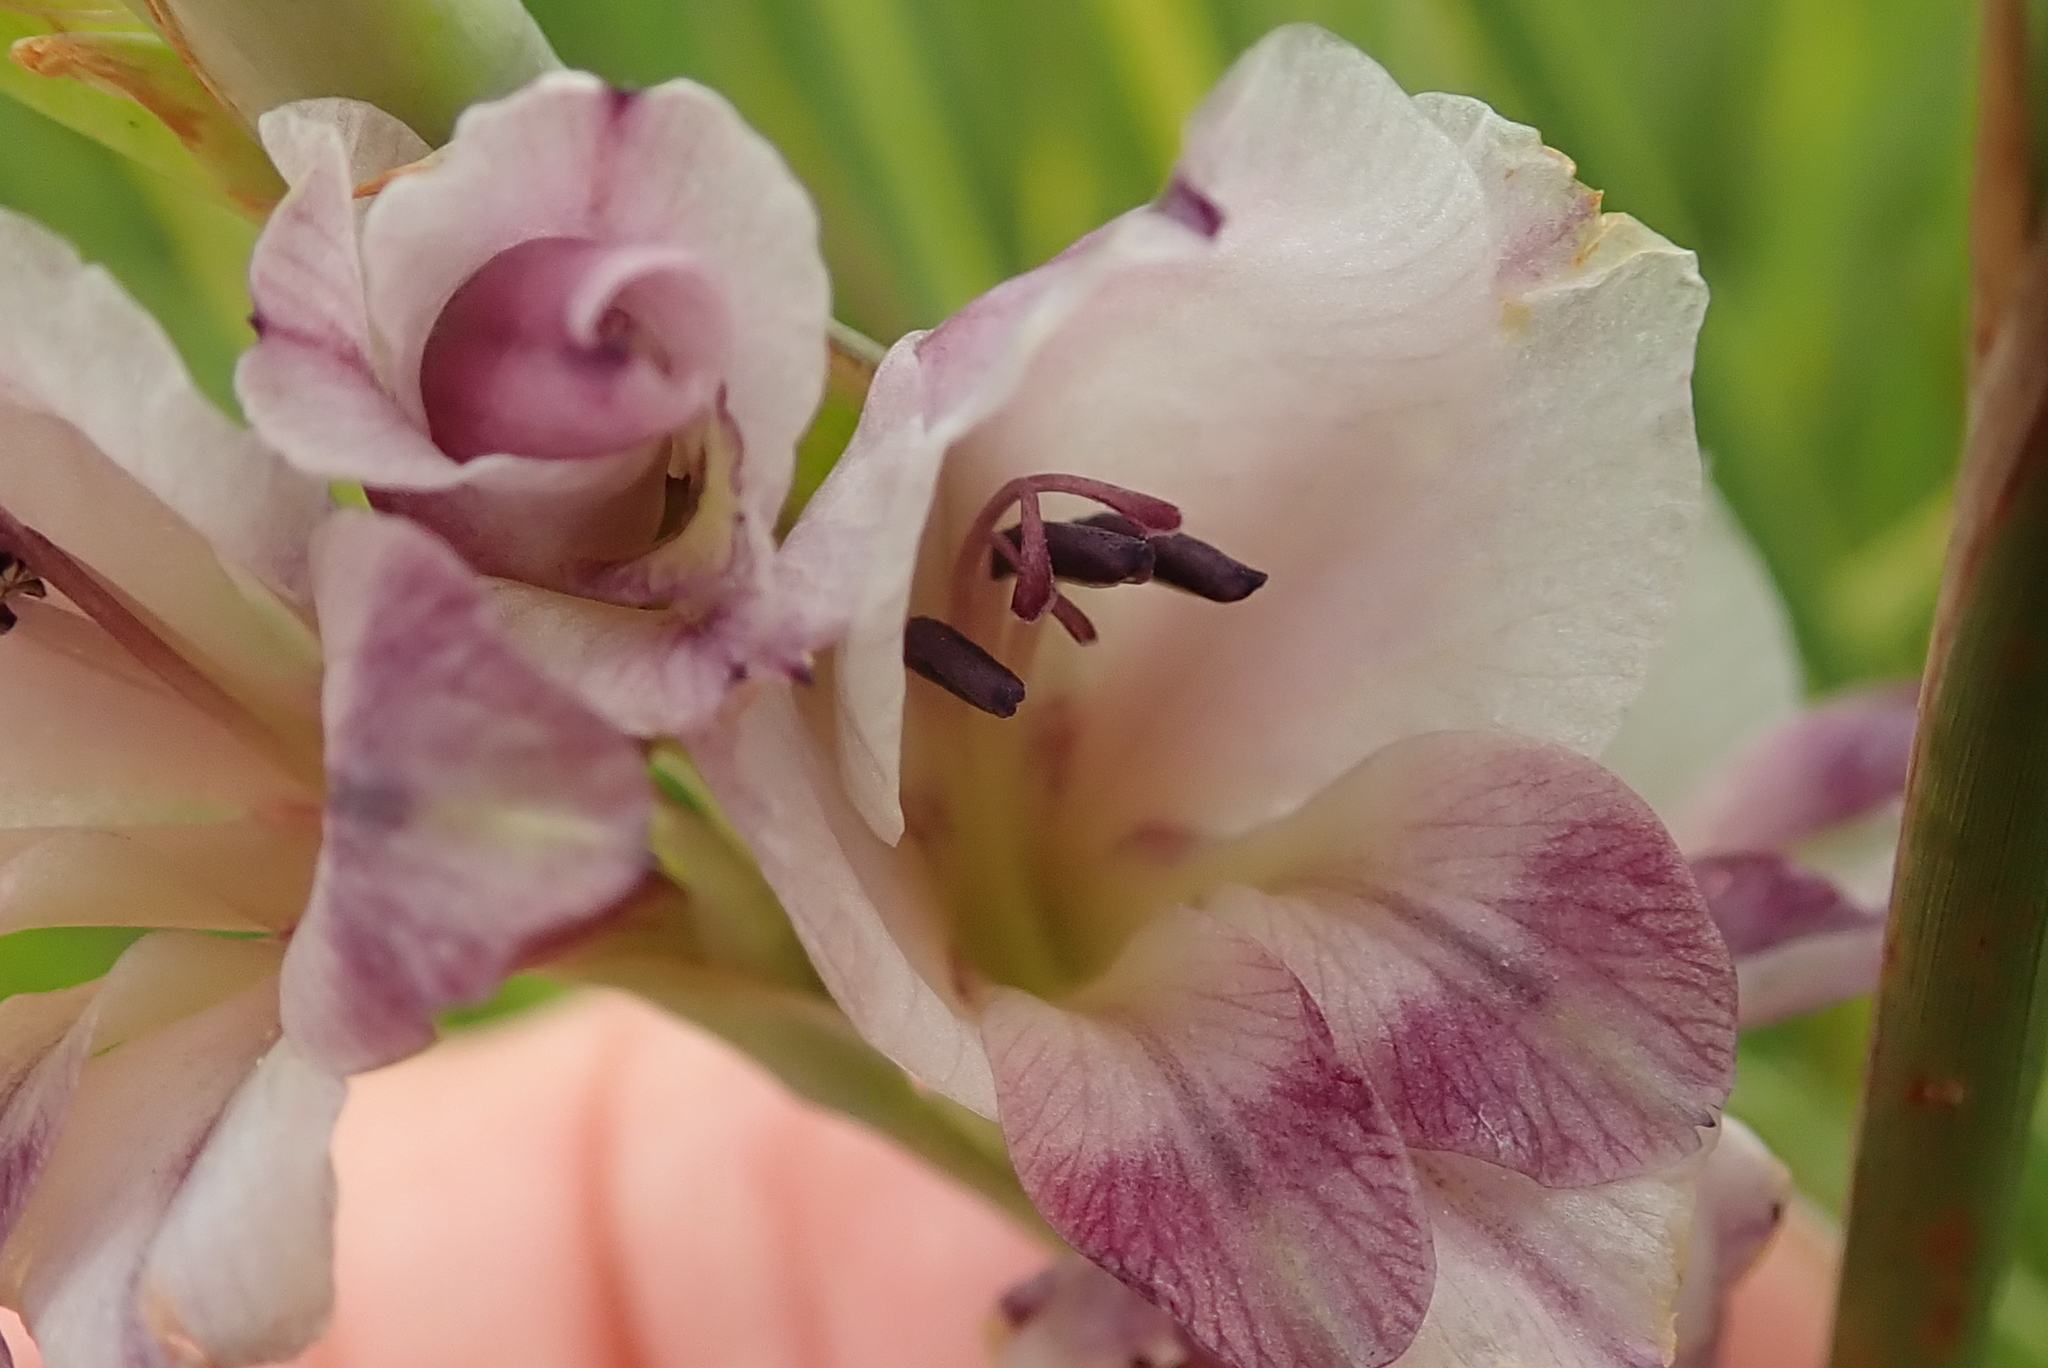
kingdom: Plantae
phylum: Tracheophyta
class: Liliopsida
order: Asparagales
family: Iridaceae
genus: Gladiolus
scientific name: Gladiolus crassifolius
